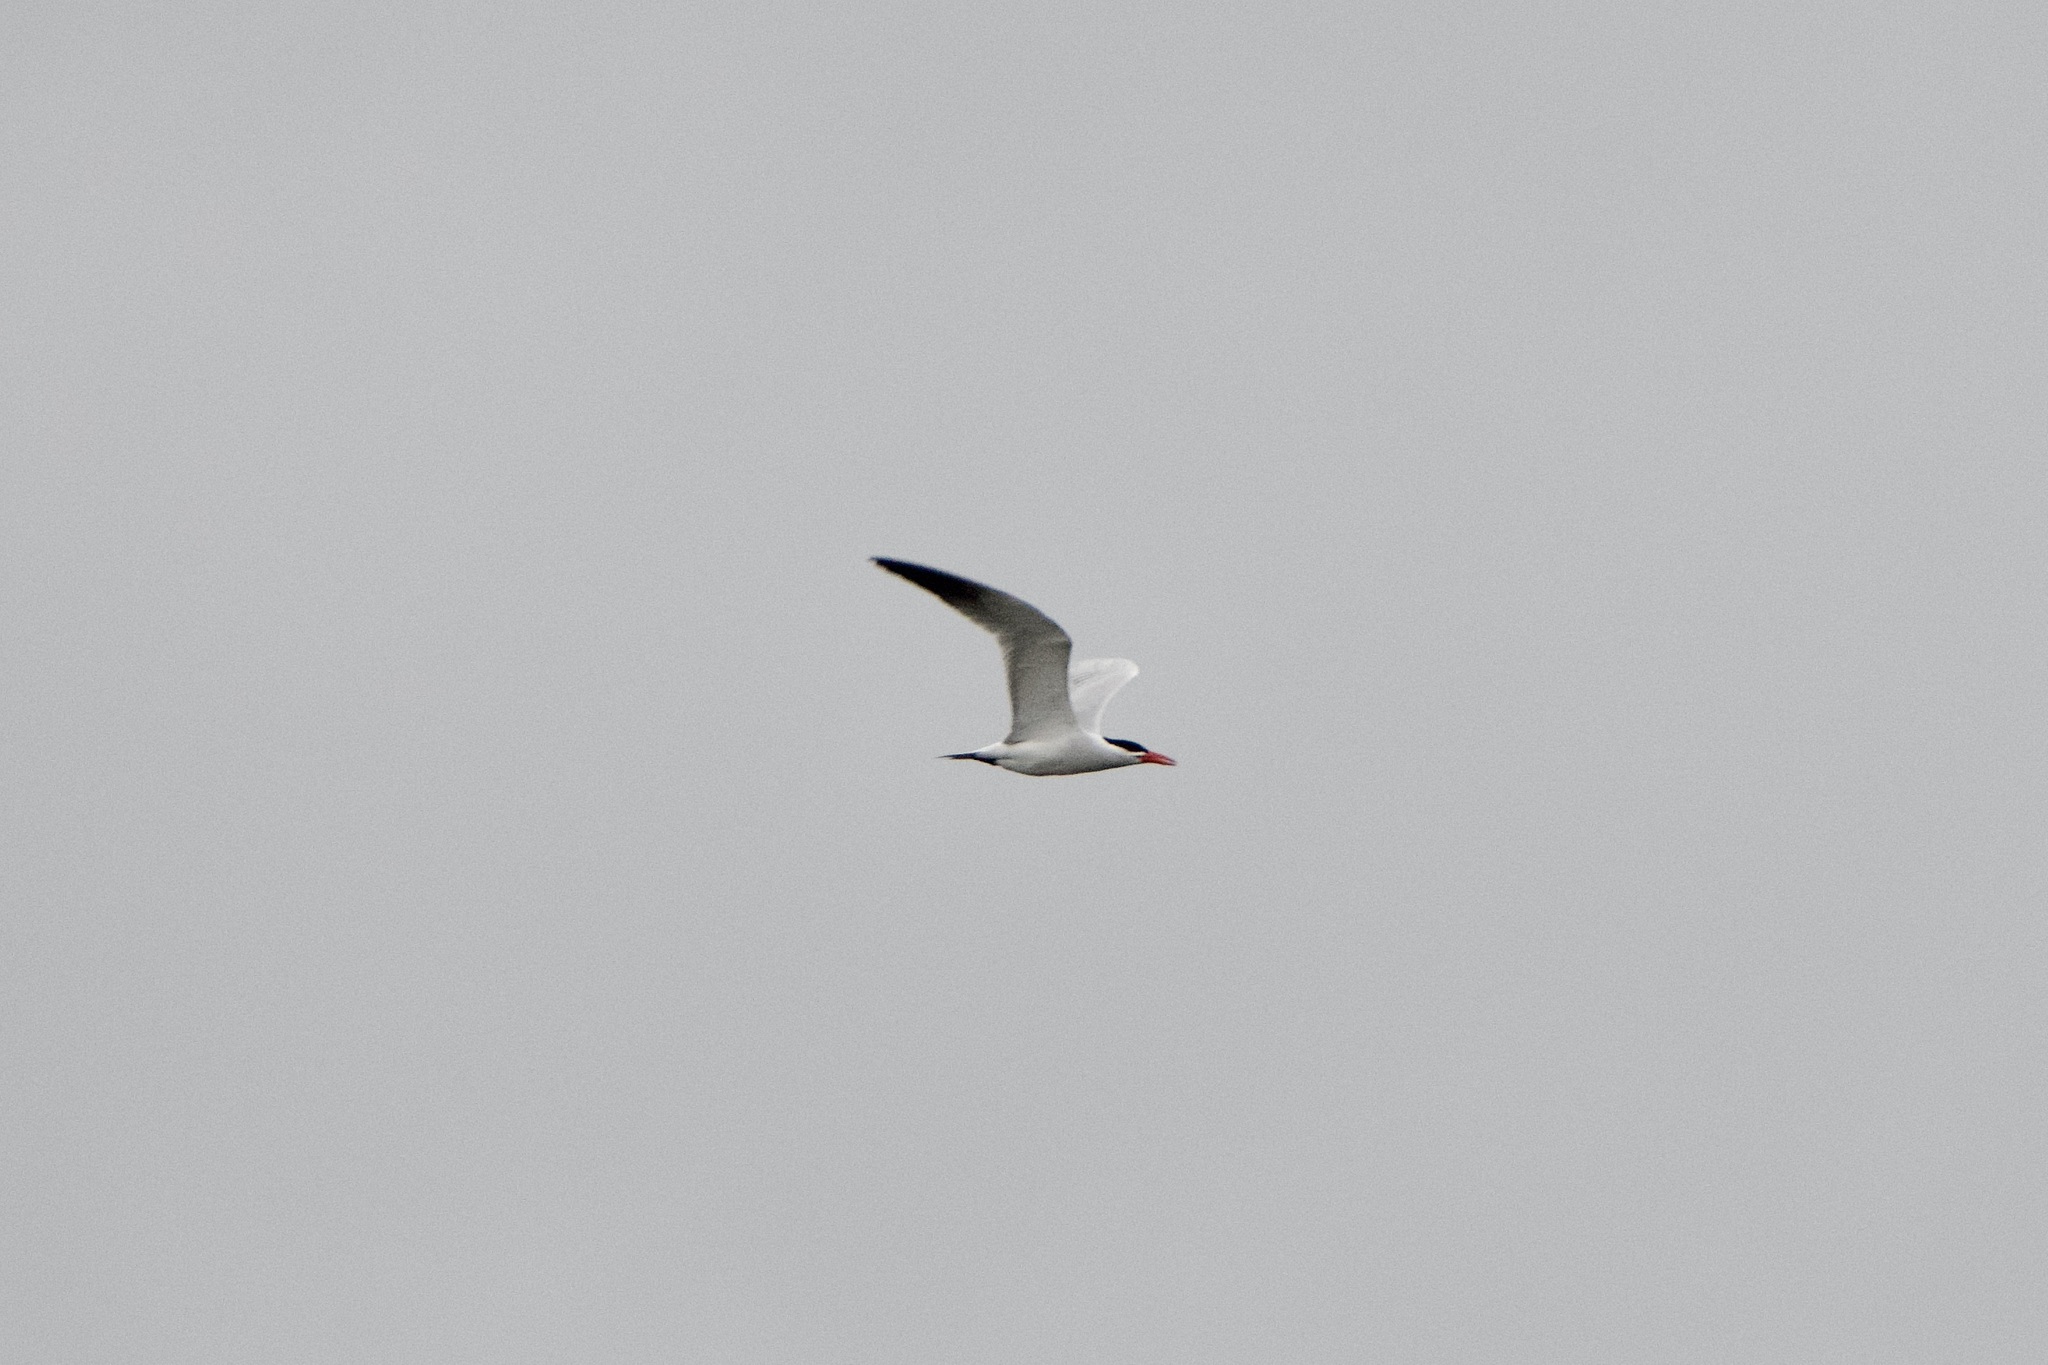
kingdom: Animalia
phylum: Chordata
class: Aves
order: Charadriiformes
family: Laridae
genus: Hydroprogne
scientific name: Hydroprogne caspia
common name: Caspian tern
